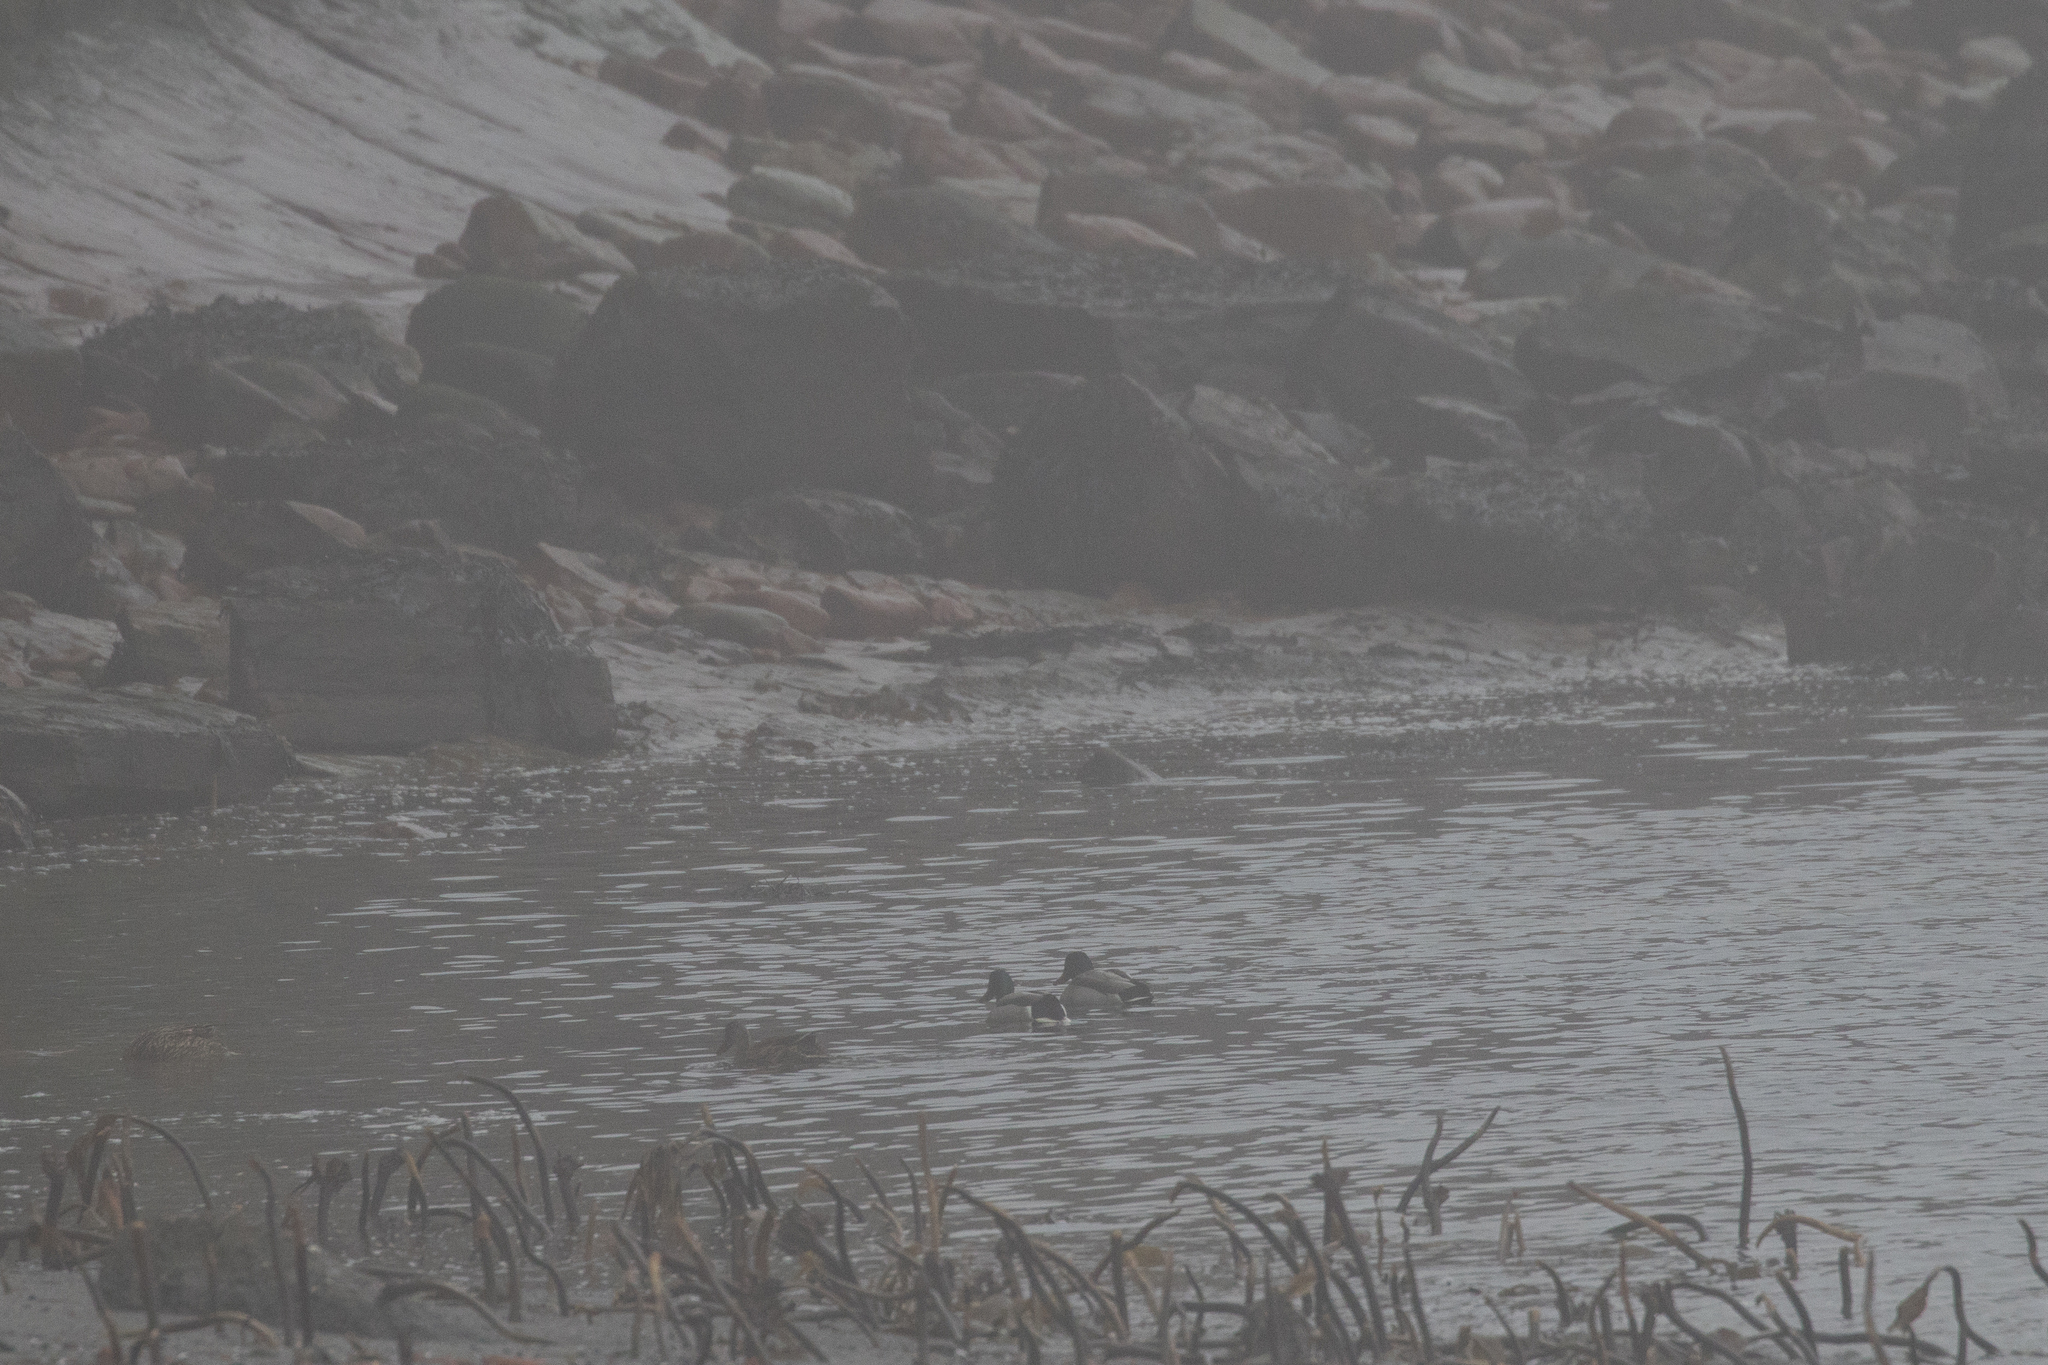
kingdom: Animalia
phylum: Chordata
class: Aves
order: Anseriformes
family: Anatidae
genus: Anas
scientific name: Anas platyrhynchos
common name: Mallard
